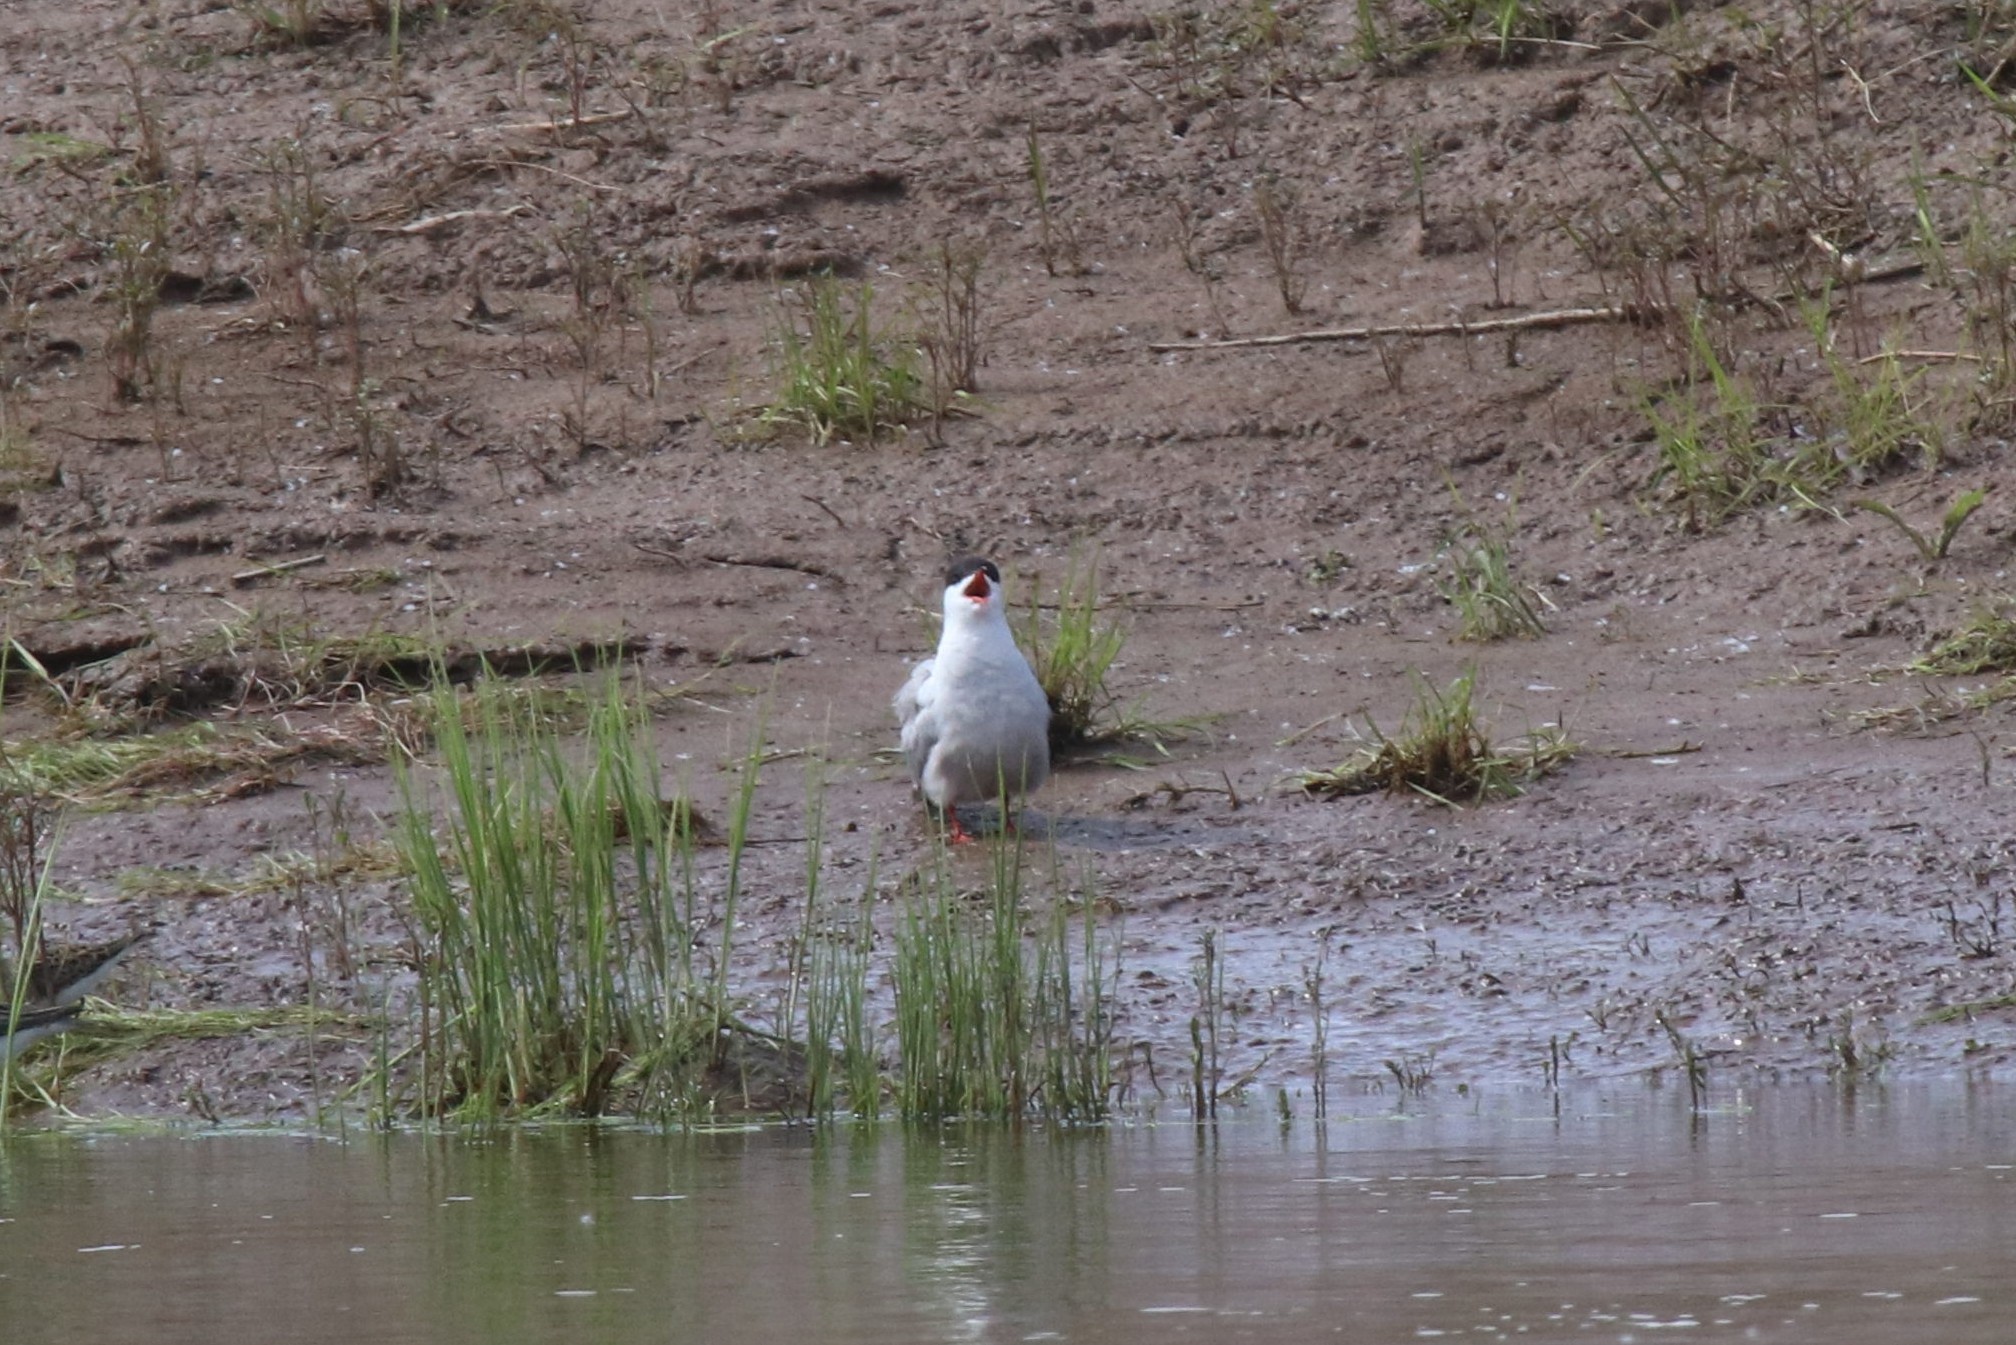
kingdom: Animalia
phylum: Chordata
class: Aves
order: Charadriiformes
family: Laridae
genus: Sterna
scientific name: Sterna hirundo
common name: Common tern
